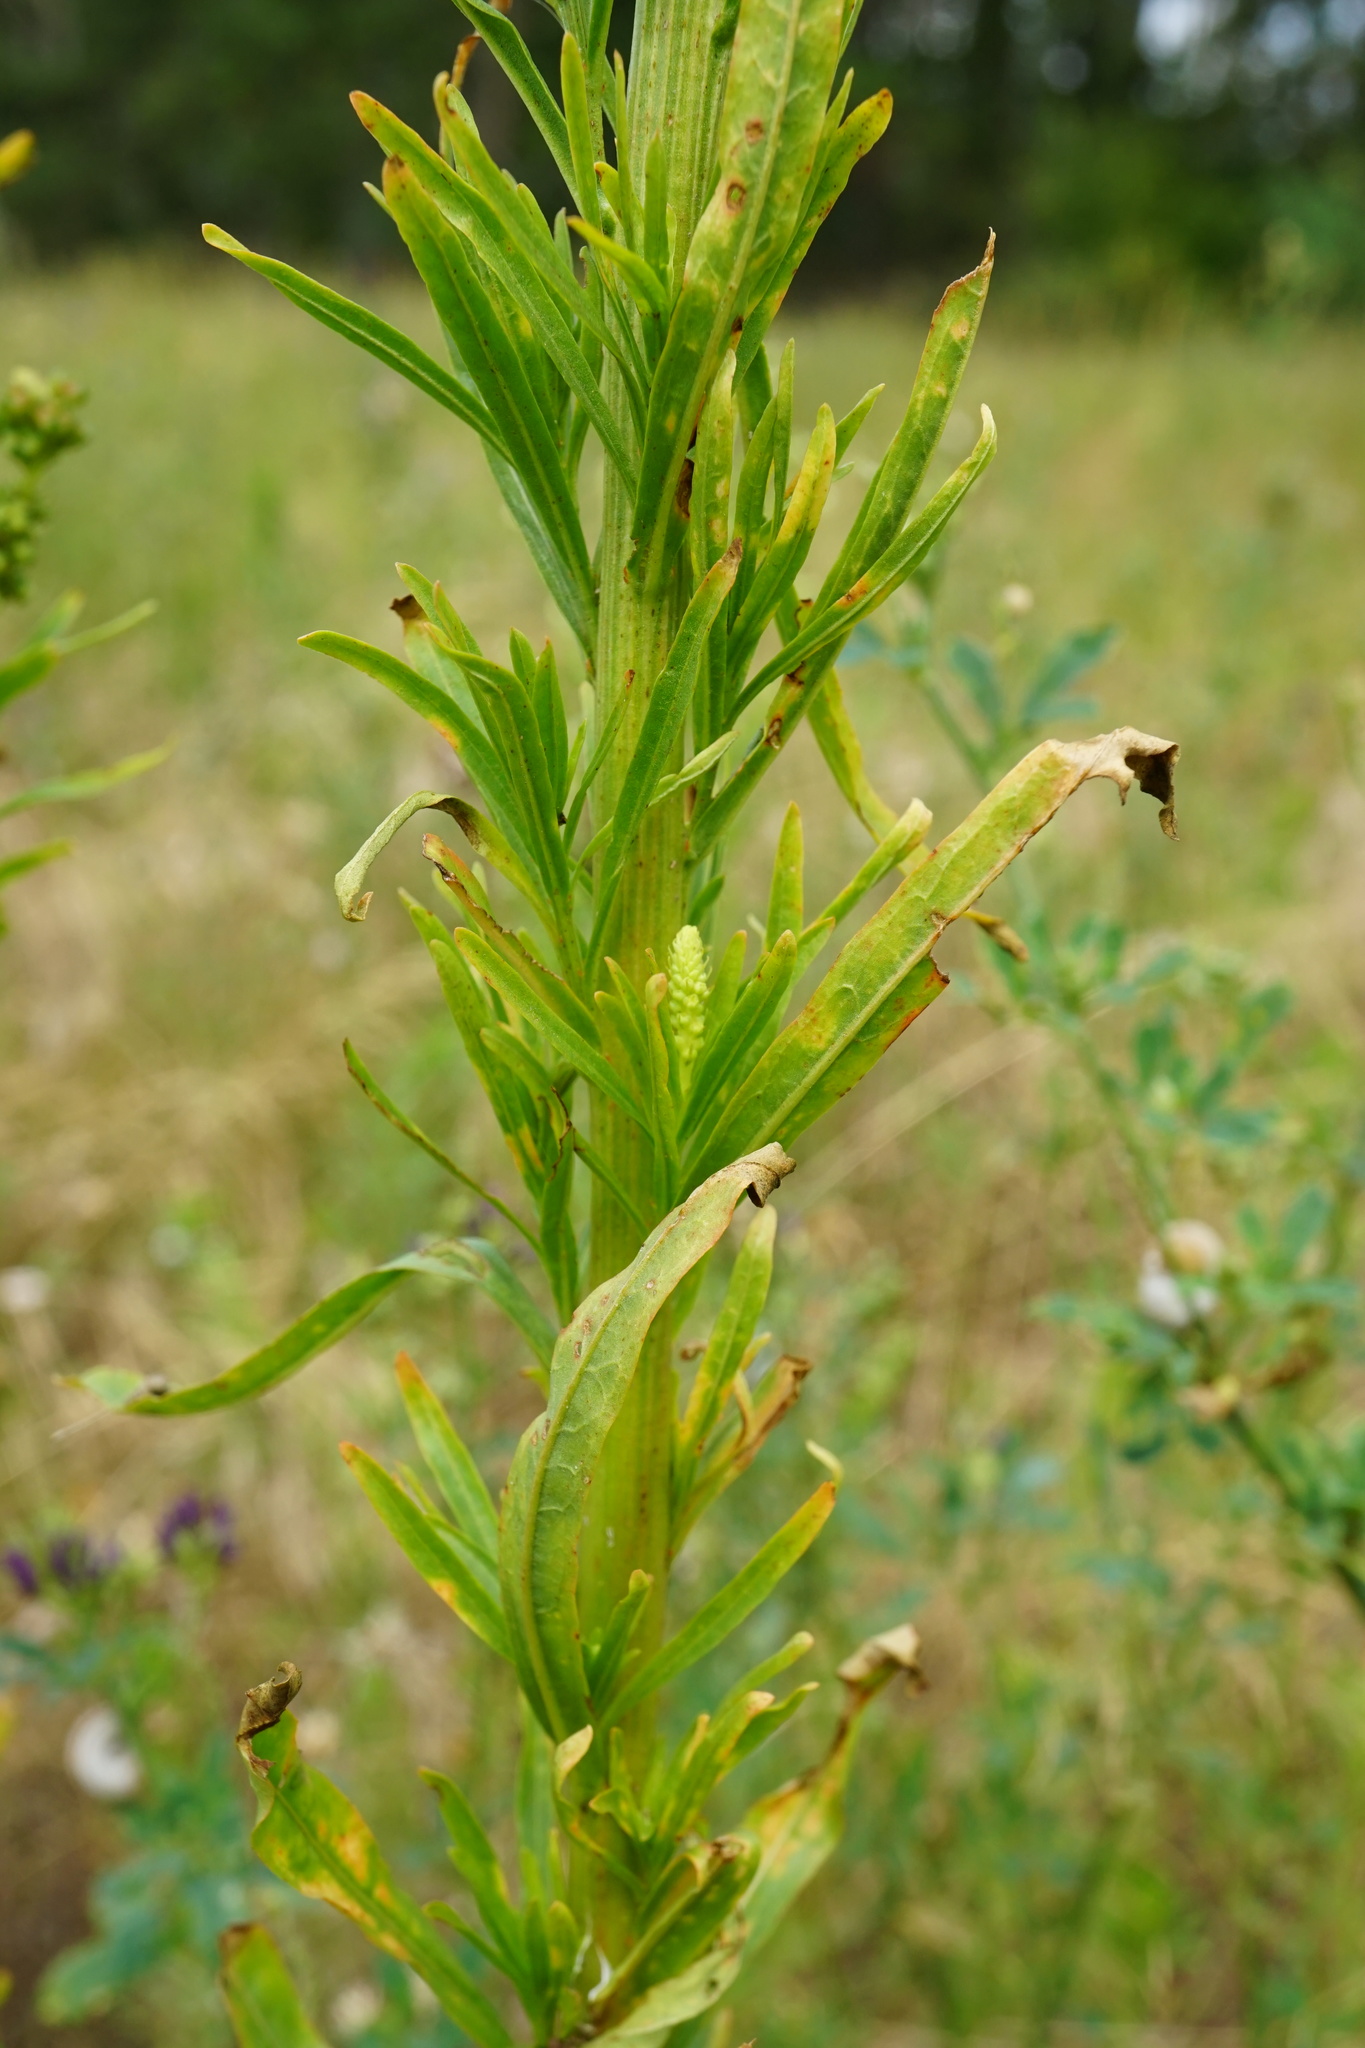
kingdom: Plantae
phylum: Tracheophyta
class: Magnoliopsida
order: Brassicales
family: Resedaceae
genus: Reseda
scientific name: Reseda luteola
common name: Weld
